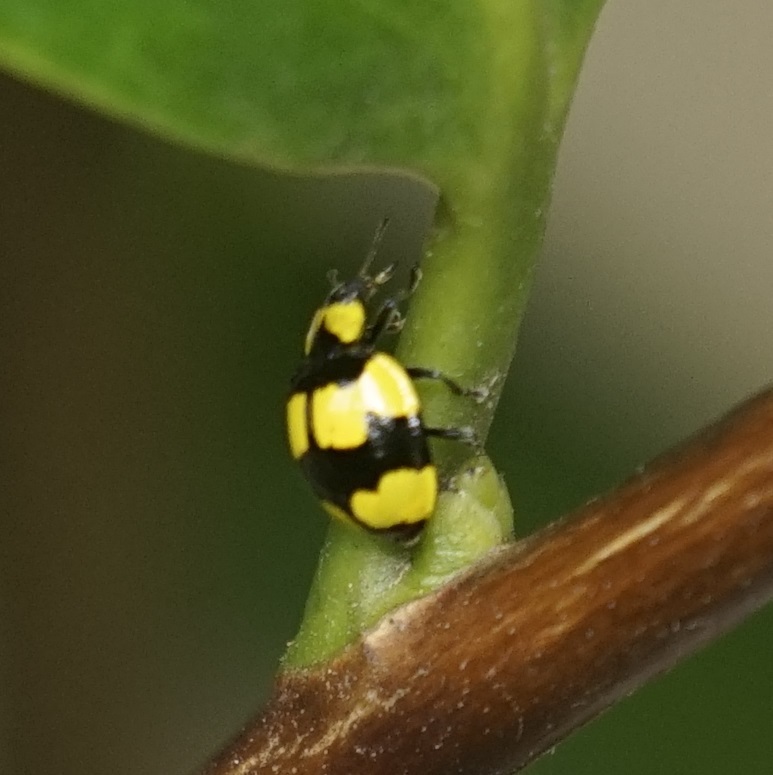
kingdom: Animalia
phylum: Arthropoda
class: Insecta
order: Coleoptera
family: Coccinellidae
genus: Illeis
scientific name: Illeis galbula
